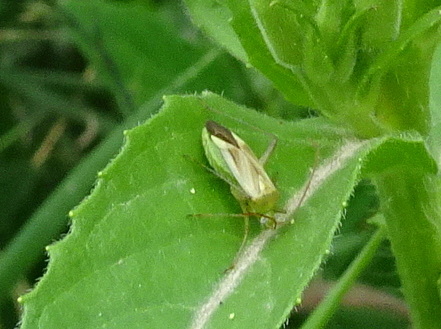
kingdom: Animalia
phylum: Arthropoda
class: Insecta
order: Hemiptera
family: Miridae
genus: Adelphocoris
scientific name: Adelphocoris lineolatus
